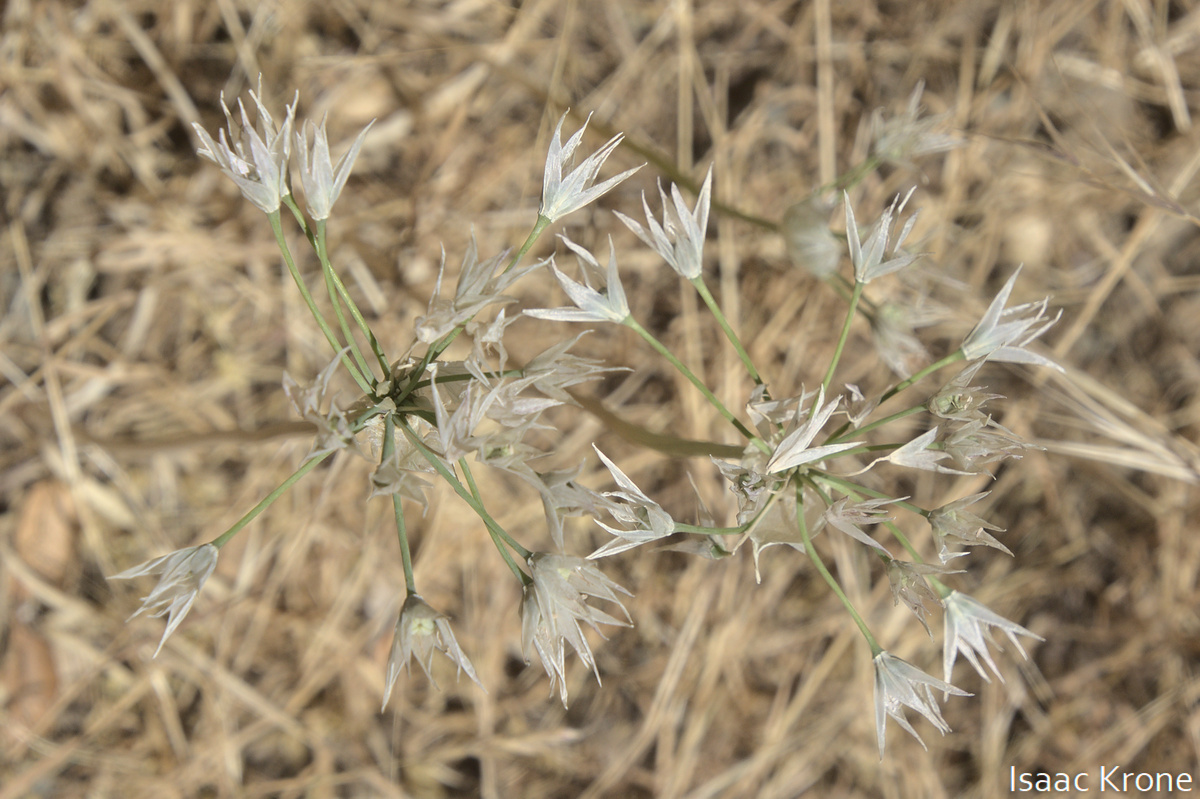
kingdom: Plantae
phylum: Tracheophyta
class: Liliopsida
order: Asparagales
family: Asparagaceae
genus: Triteleia
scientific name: Triteleia hyacinthina
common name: White brodiaea
